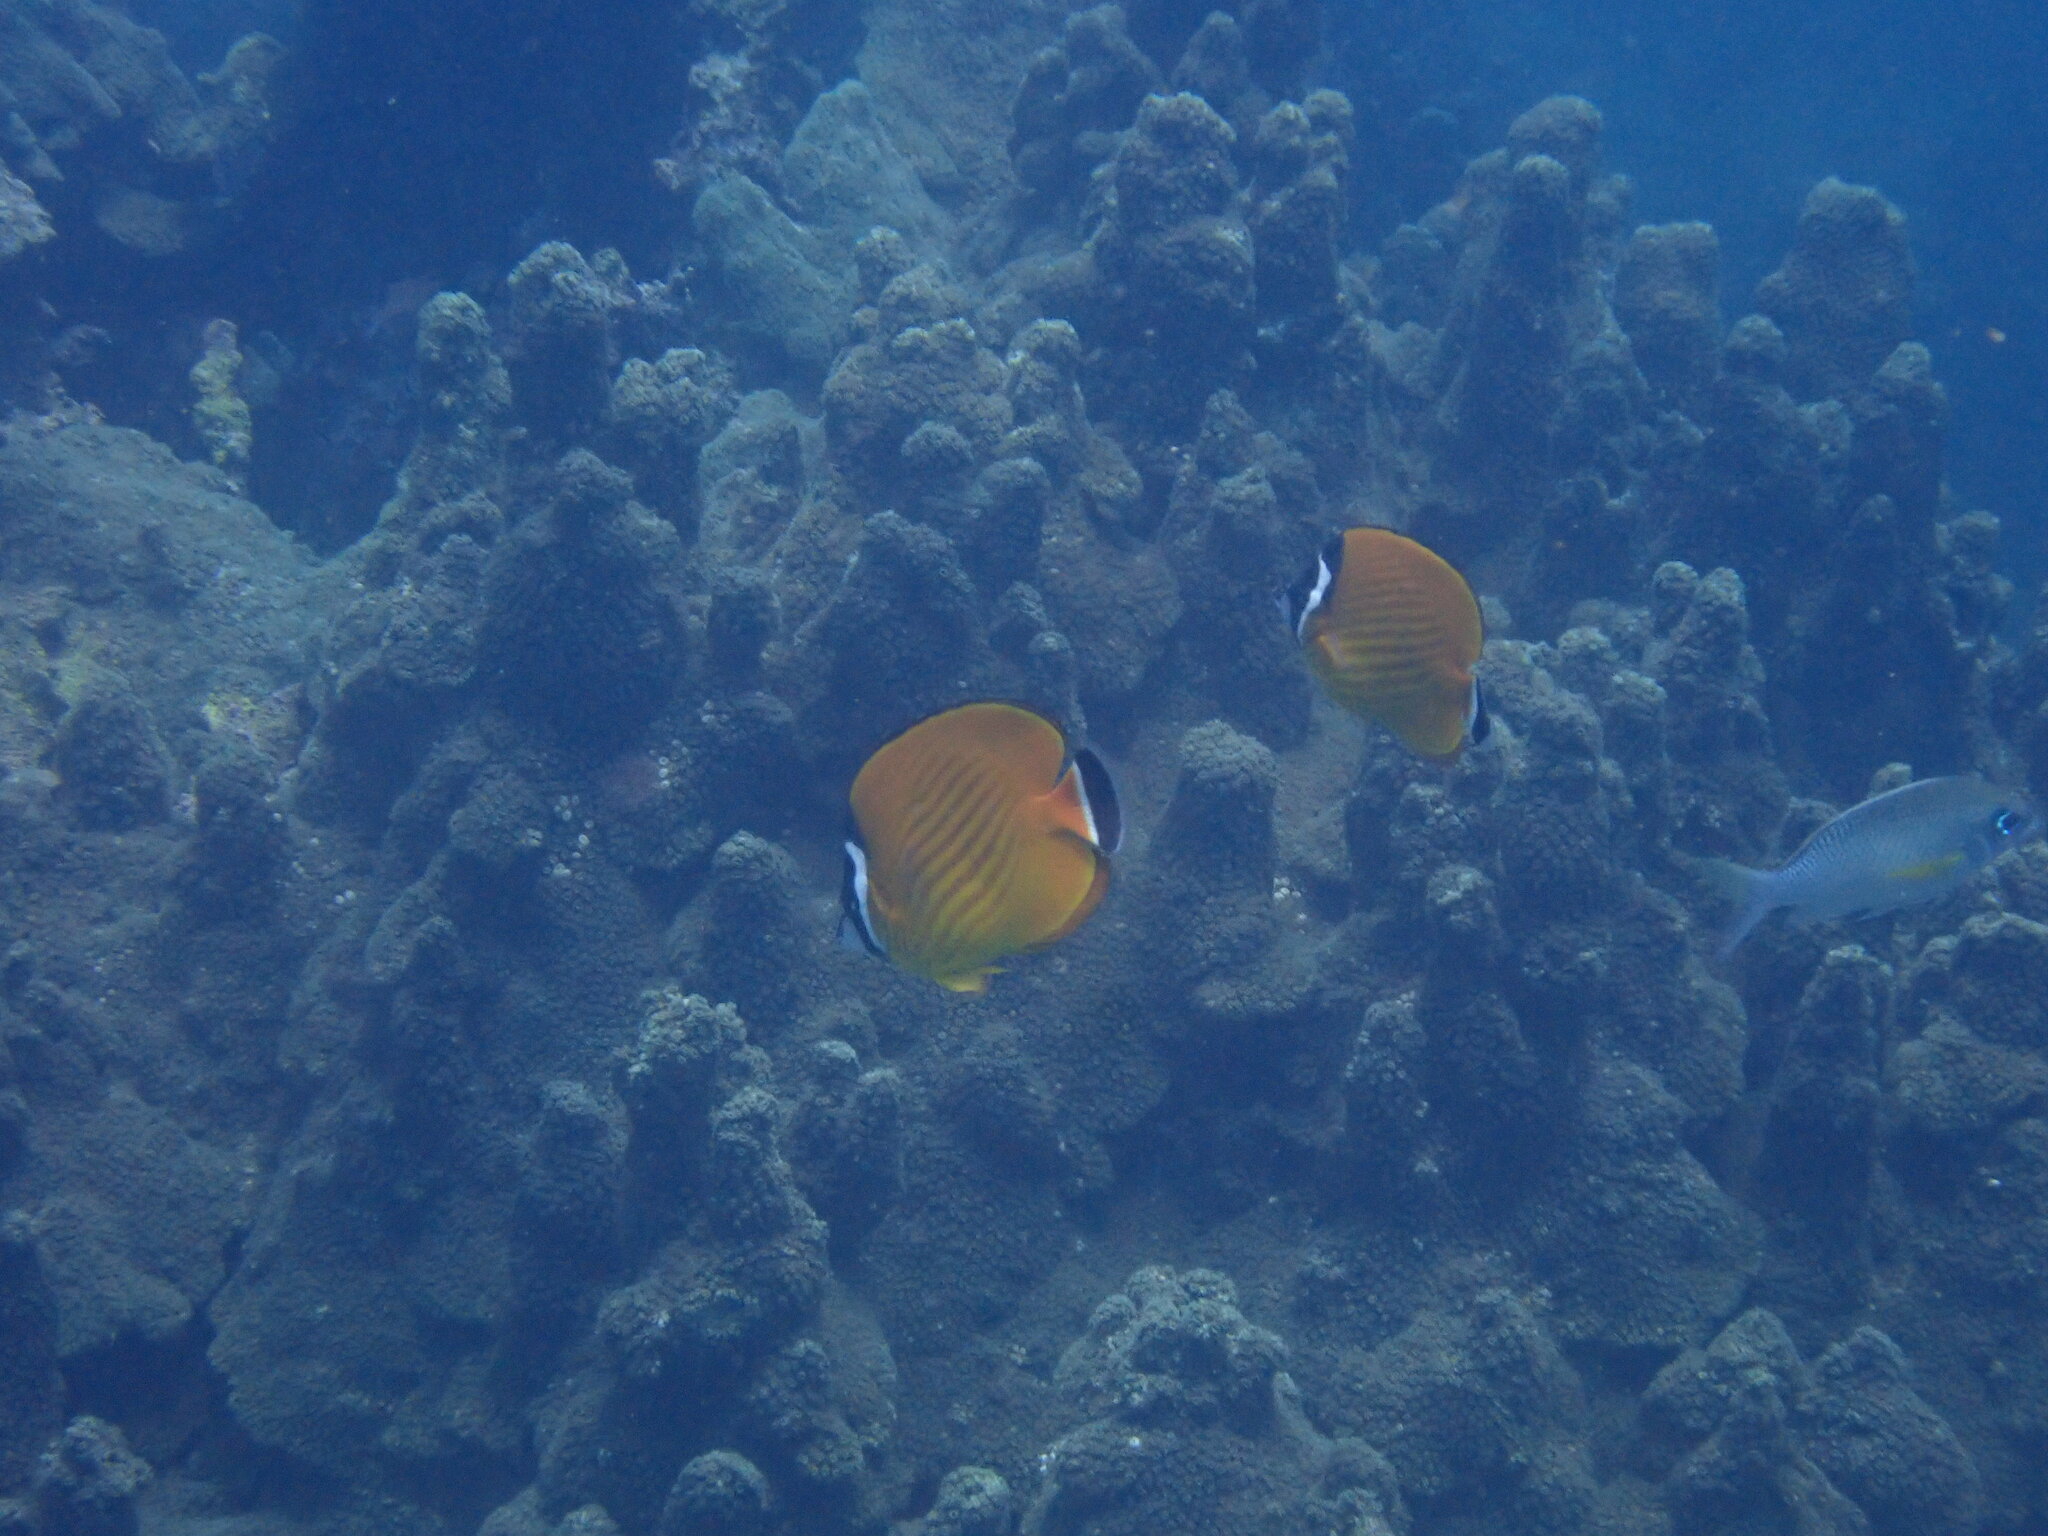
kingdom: Animalia
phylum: Chordata
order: Perciformes
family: Chaetodontidae
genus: Chaetodon
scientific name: Chaetodon wiebeli
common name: Butterflyfish
